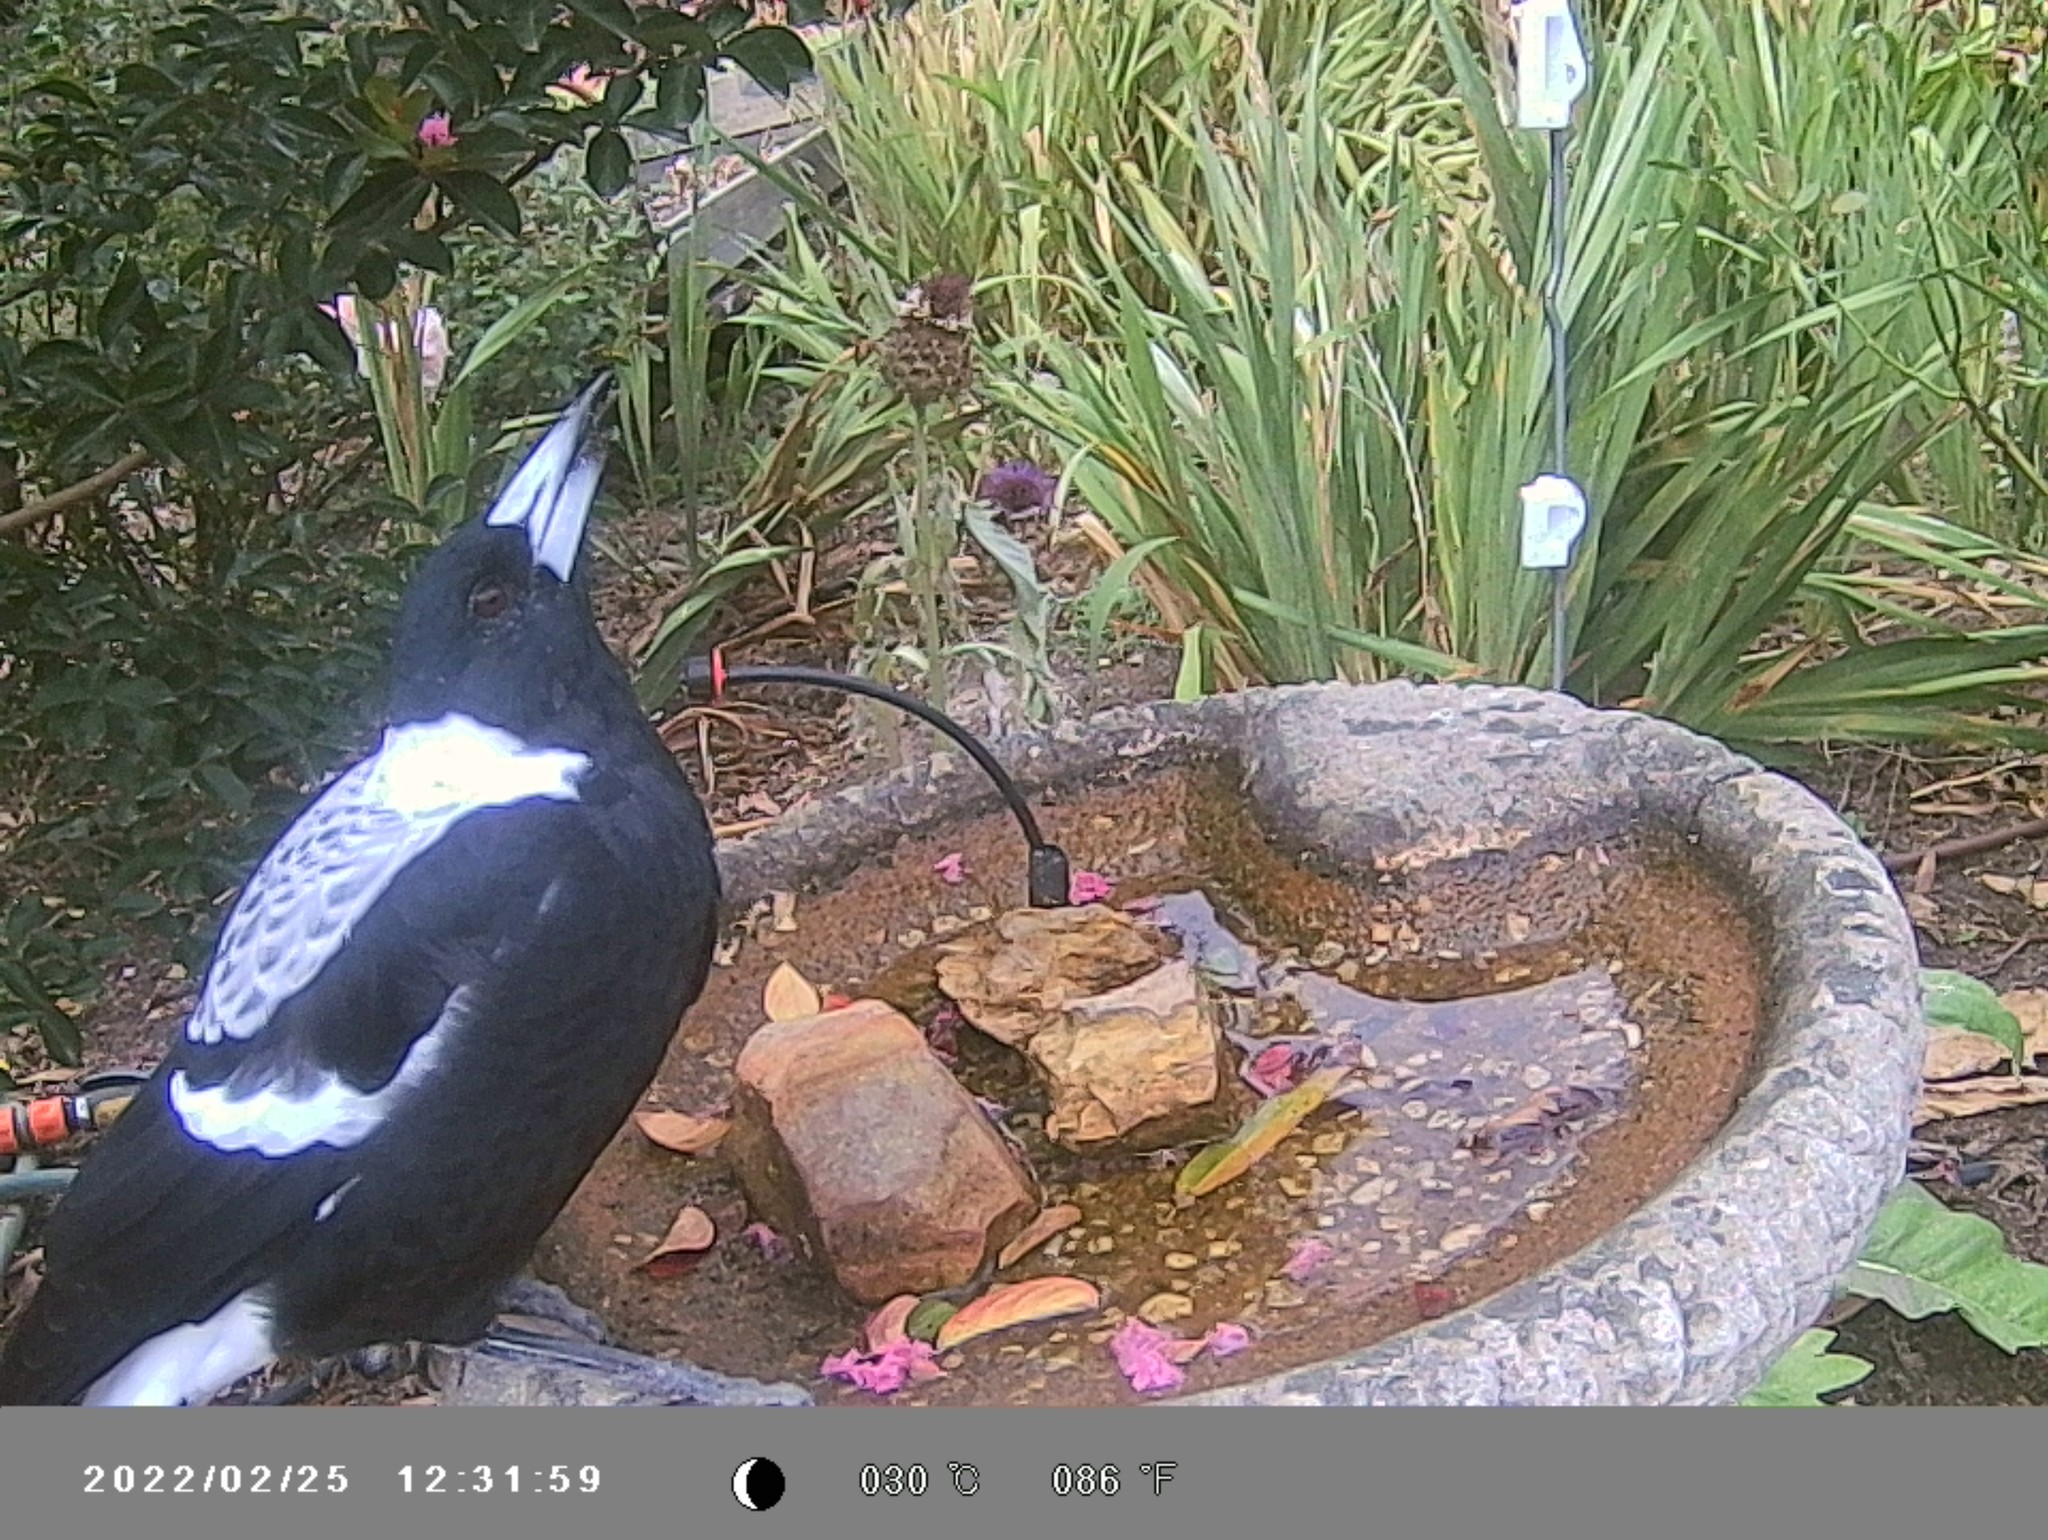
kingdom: Animalia
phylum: Chordata
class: Aves
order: Passeriformes
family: Cracticidae
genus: Gymnorhina
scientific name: Gymnorhina tibicen
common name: Australian magpie
